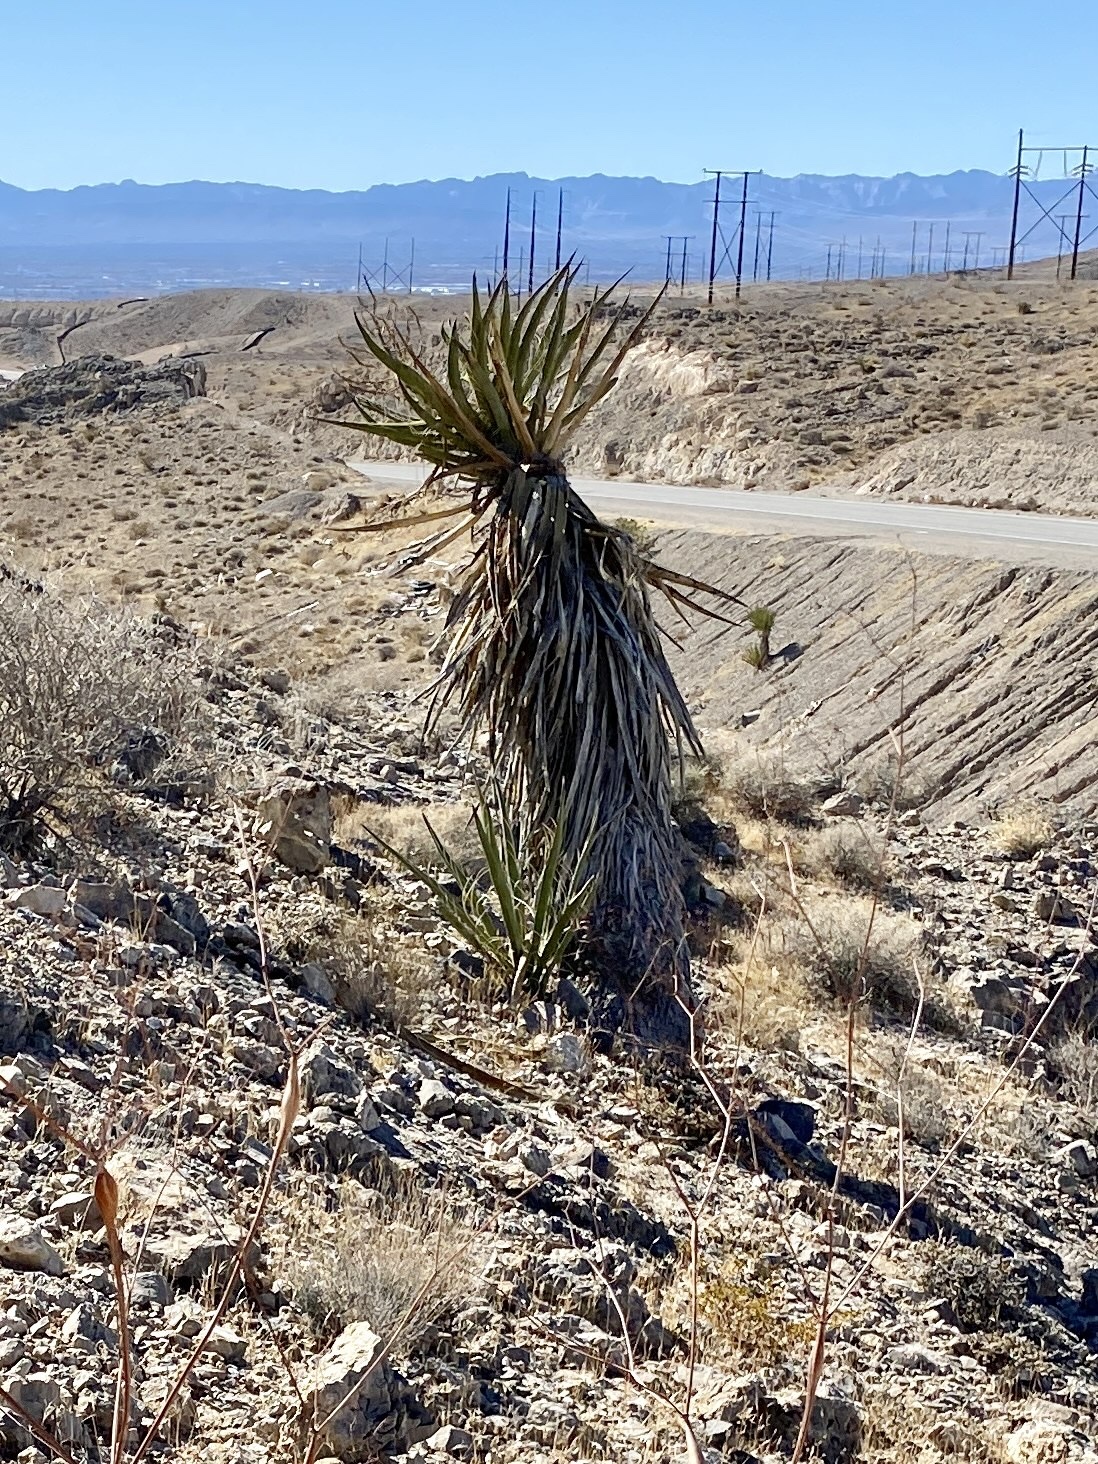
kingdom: Plantae
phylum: Tracheophyta
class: Liliopsida
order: Asparagales
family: Asparagaceae
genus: Yucca
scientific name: Yucca schidigera
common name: Mojave yucca
